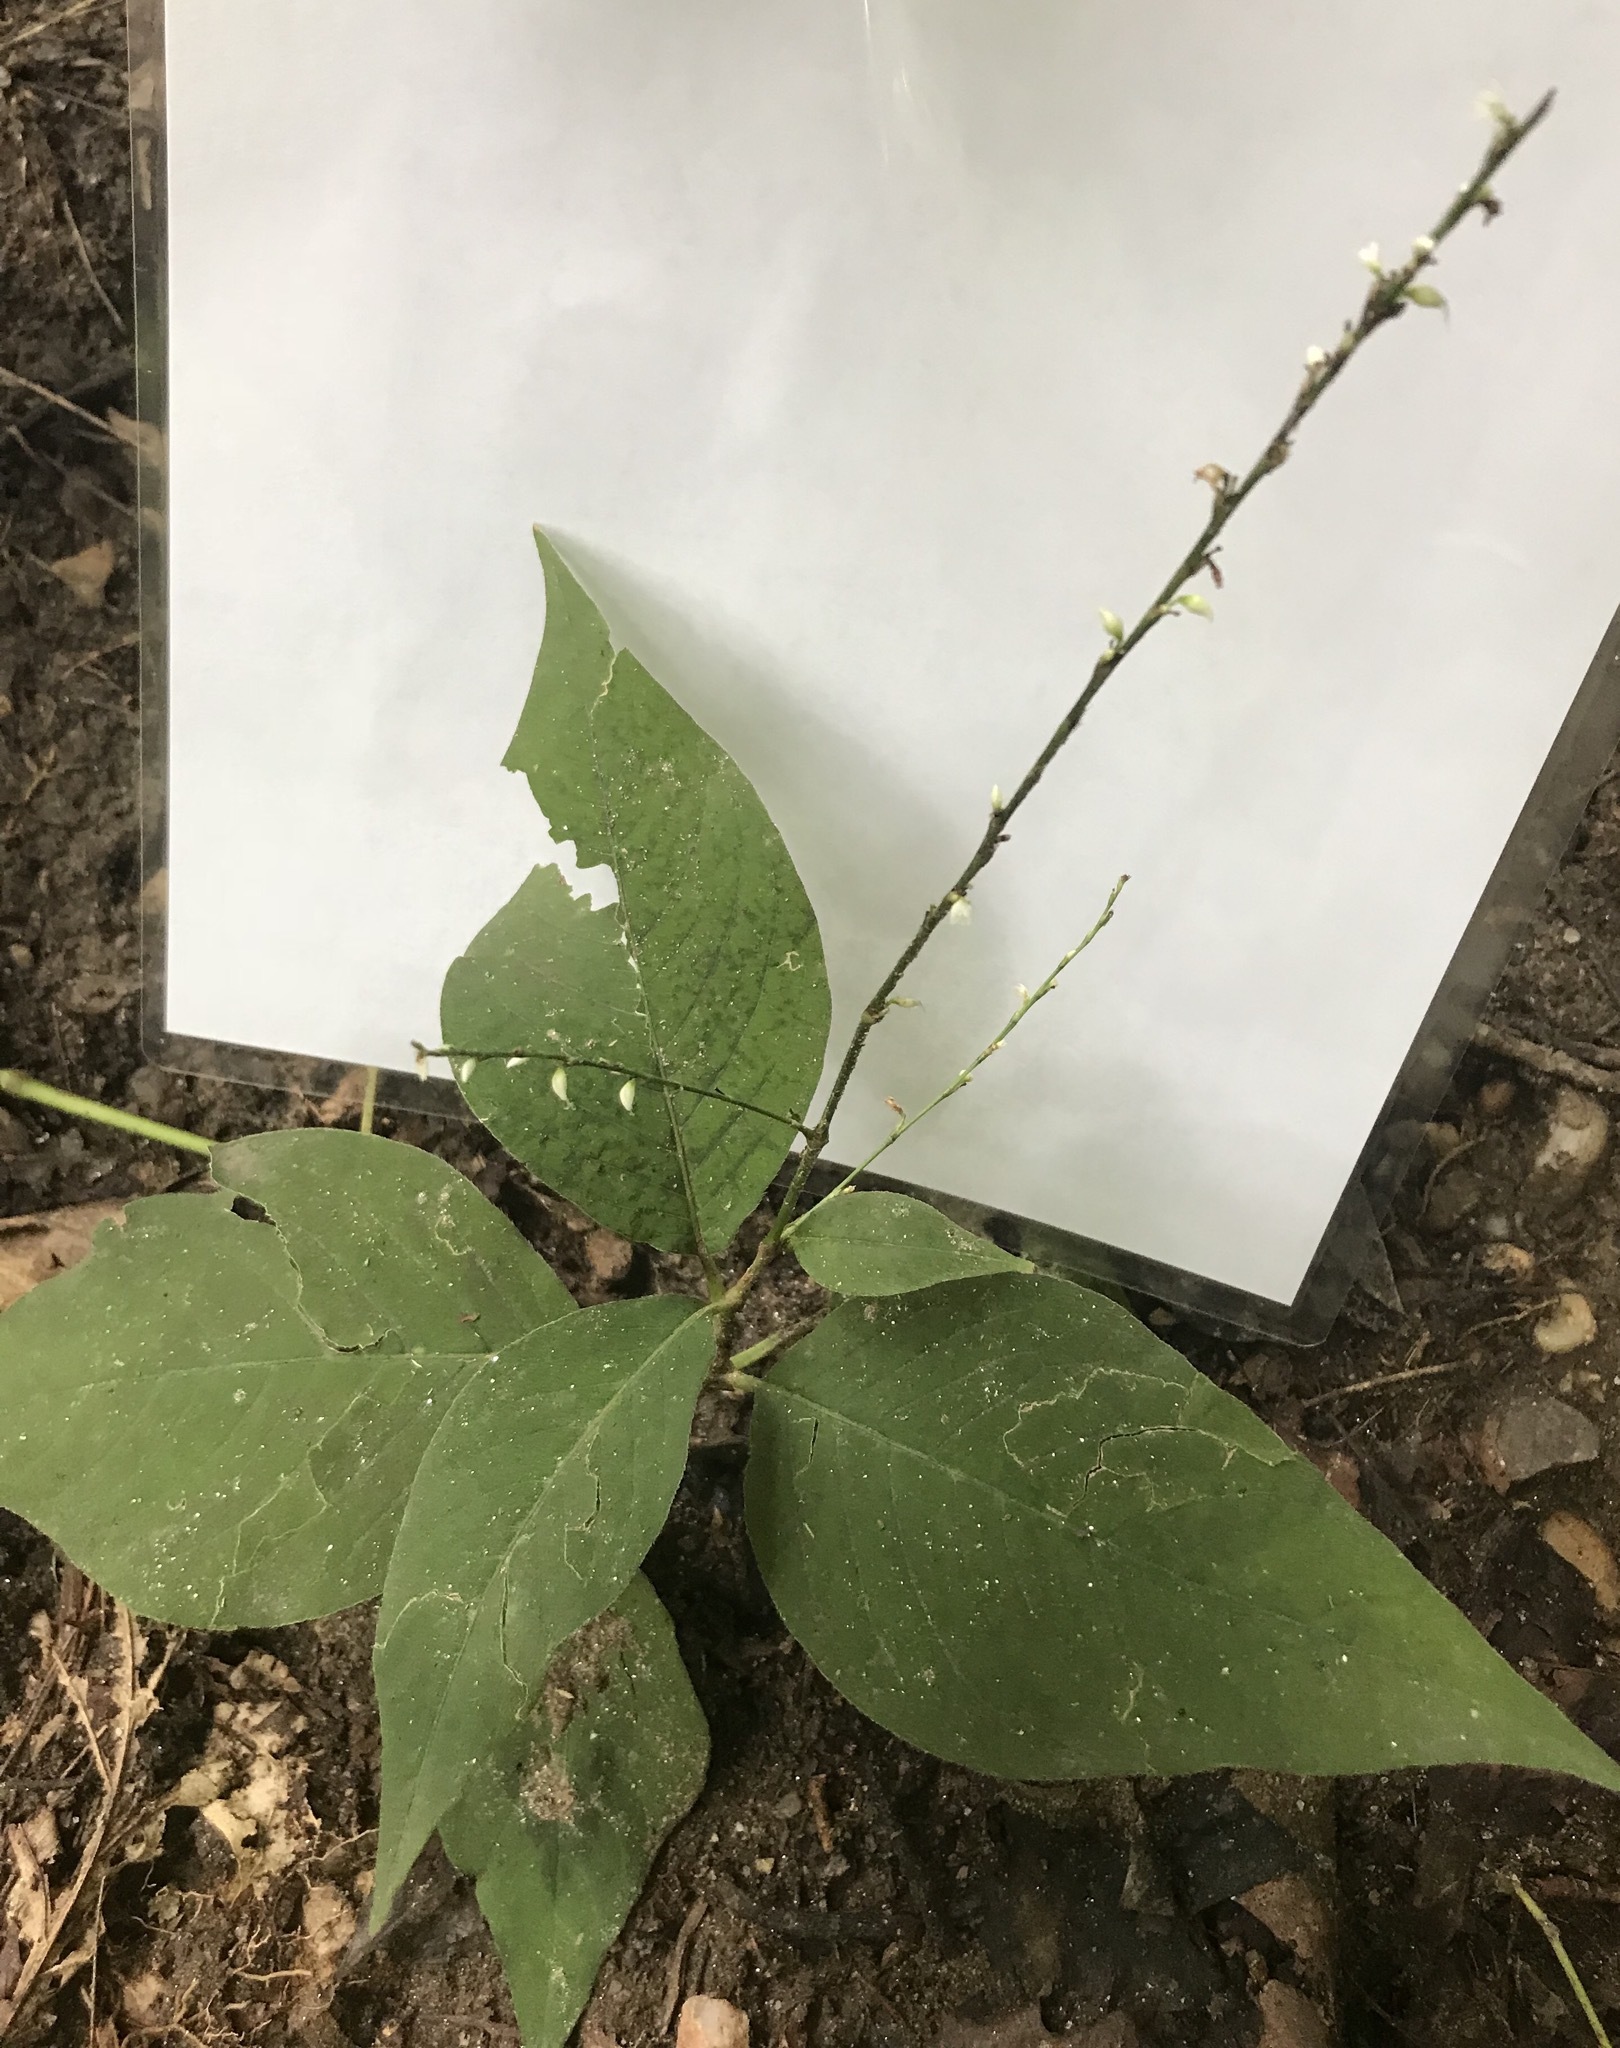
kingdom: Plantae
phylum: Tracheophyta
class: Magnoliopsida
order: Caryophyllales
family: Polygonaceae
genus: Persicaria
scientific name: Persicaria virginiana
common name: Jumpseed
